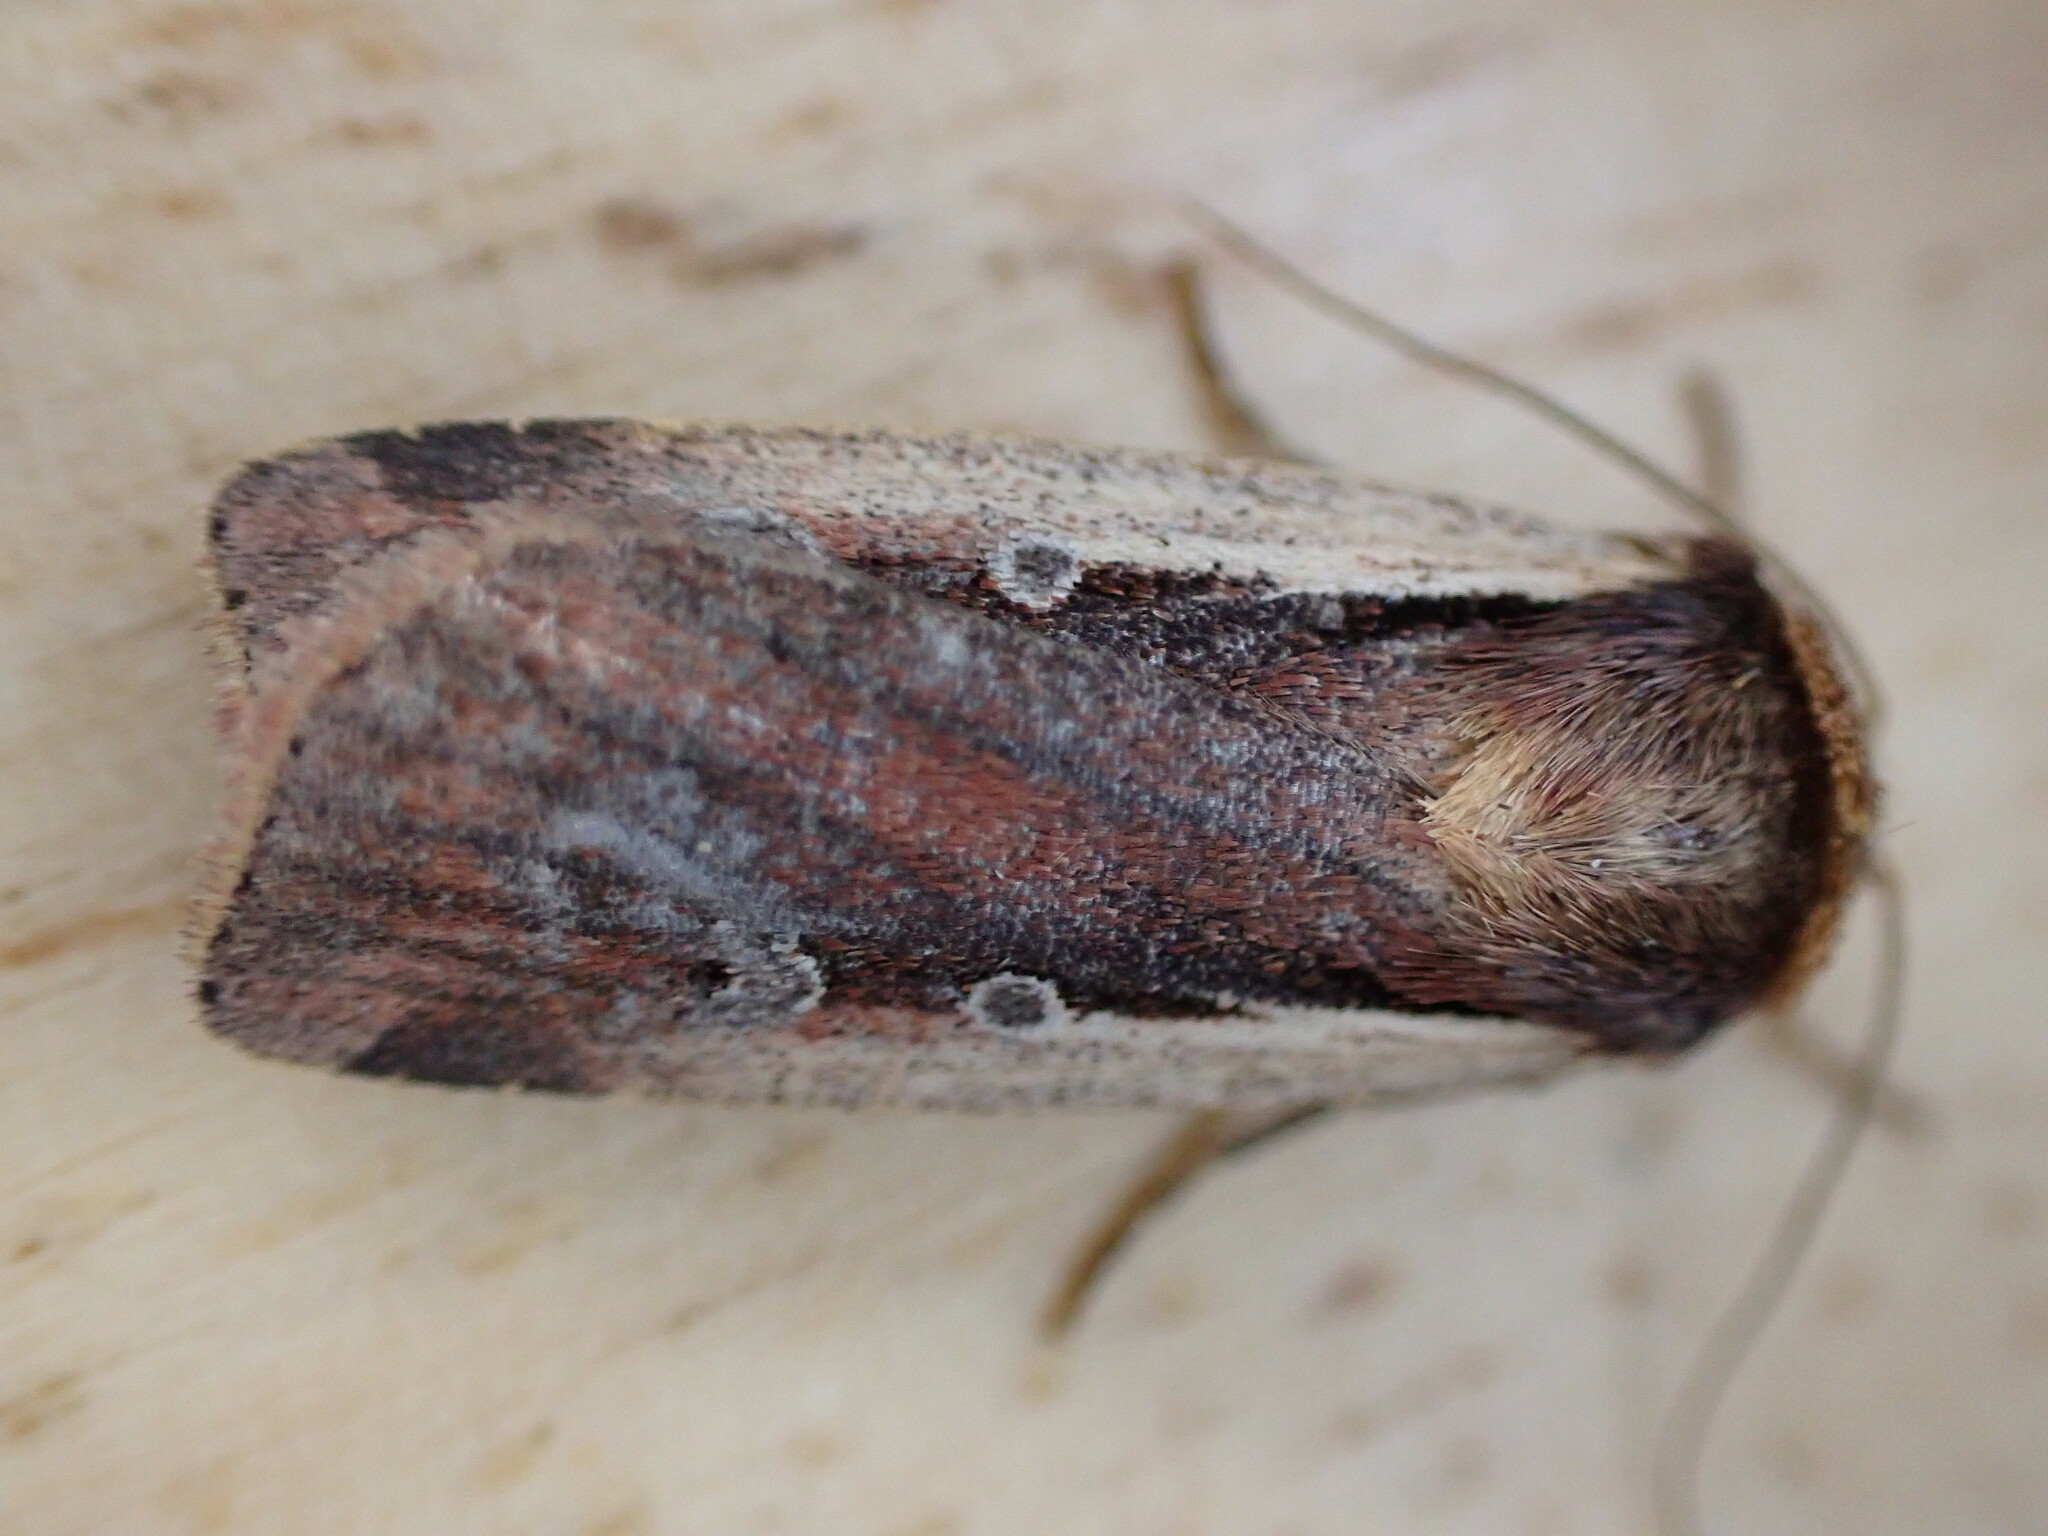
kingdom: Animalia
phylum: Arthropoda
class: Insecta
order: Lepidoptera
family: Noctuidae
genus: Ochropleura
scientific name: Ochropleura plecta
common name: Flame shoulder
